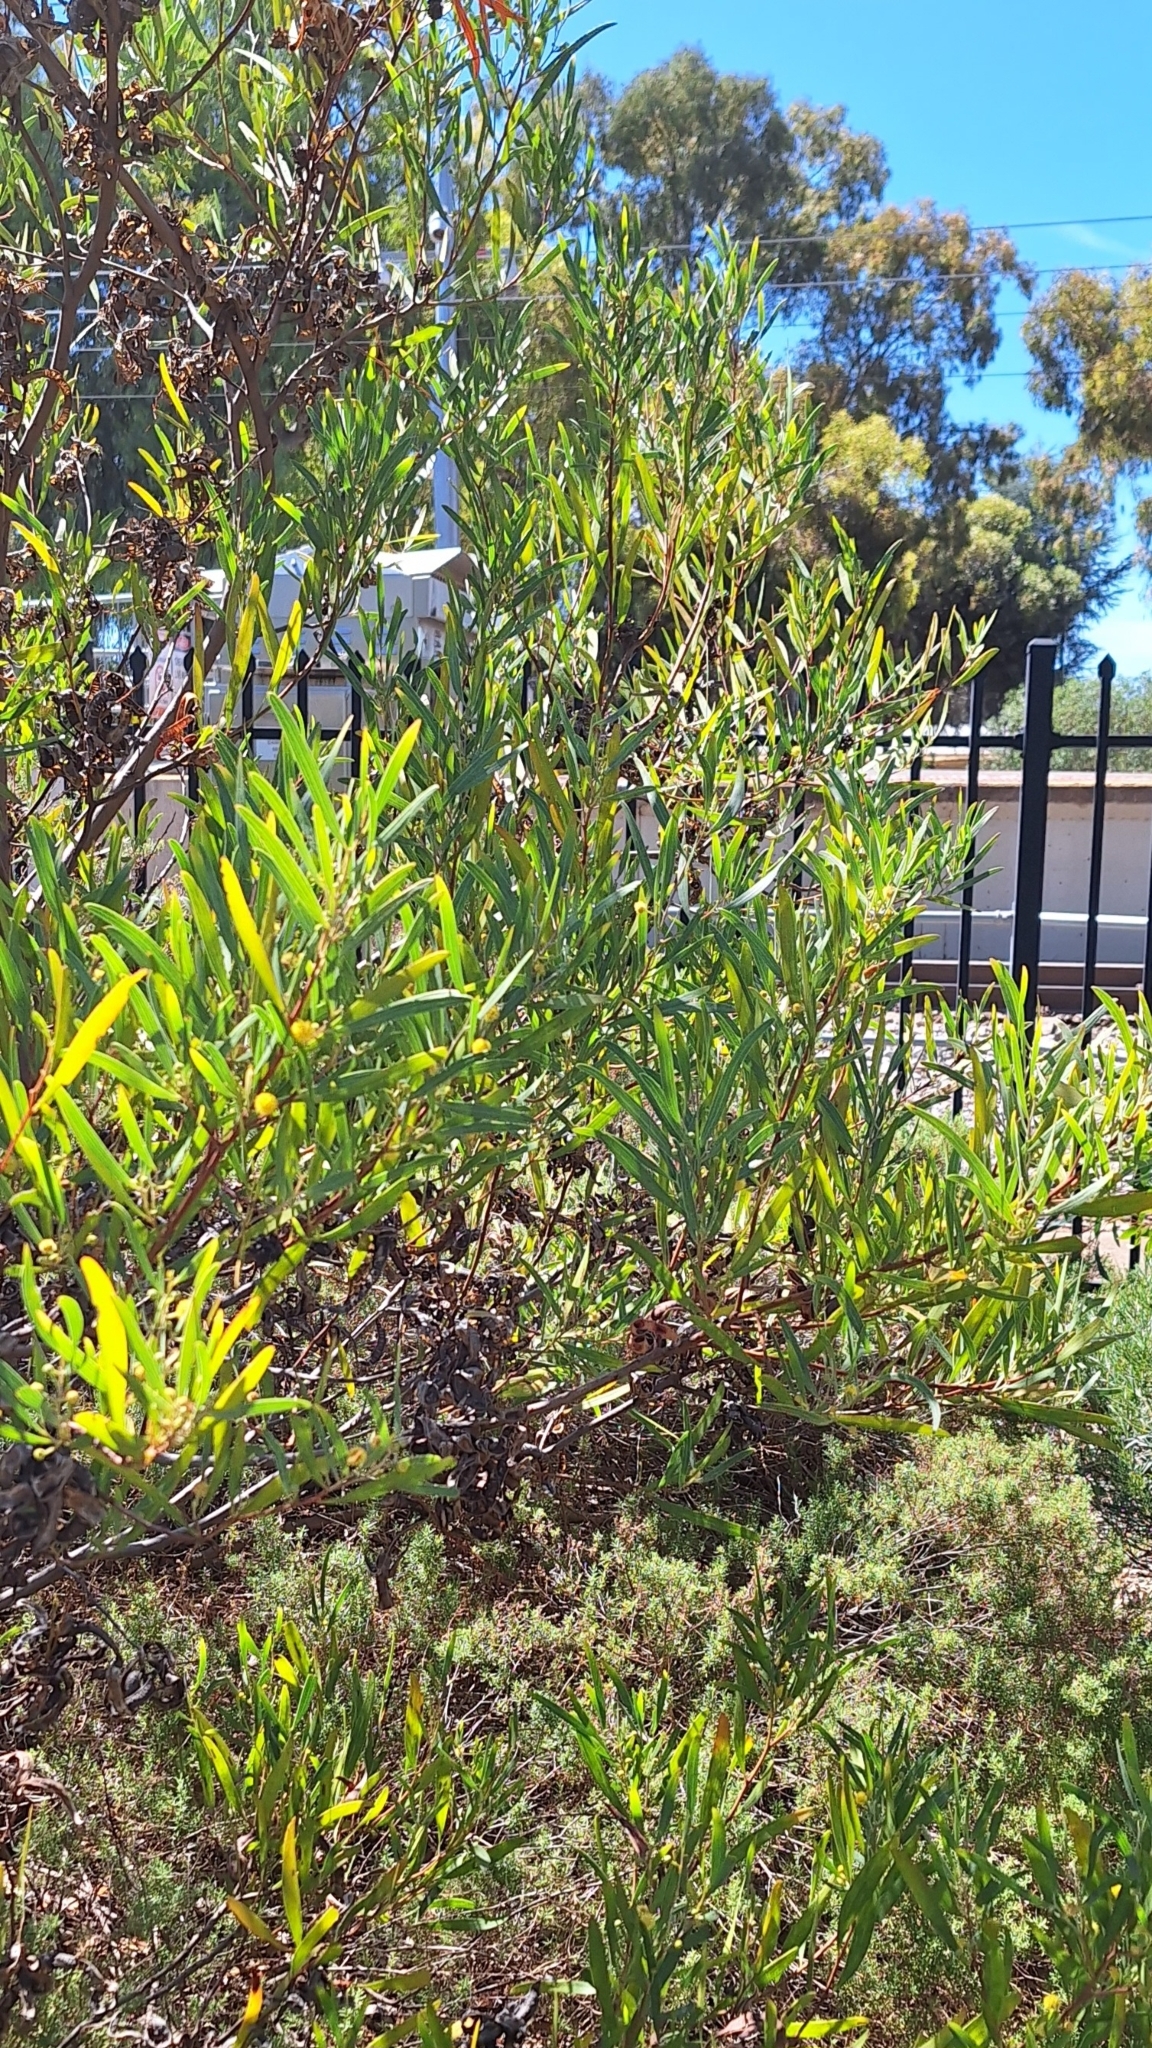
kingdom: Plantae
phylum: Tracheophyta
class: Magnoliopsida
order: Fabales
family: Fabaceae
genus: Acacia
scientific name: Acacia cyclops
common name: Coastal wattle
